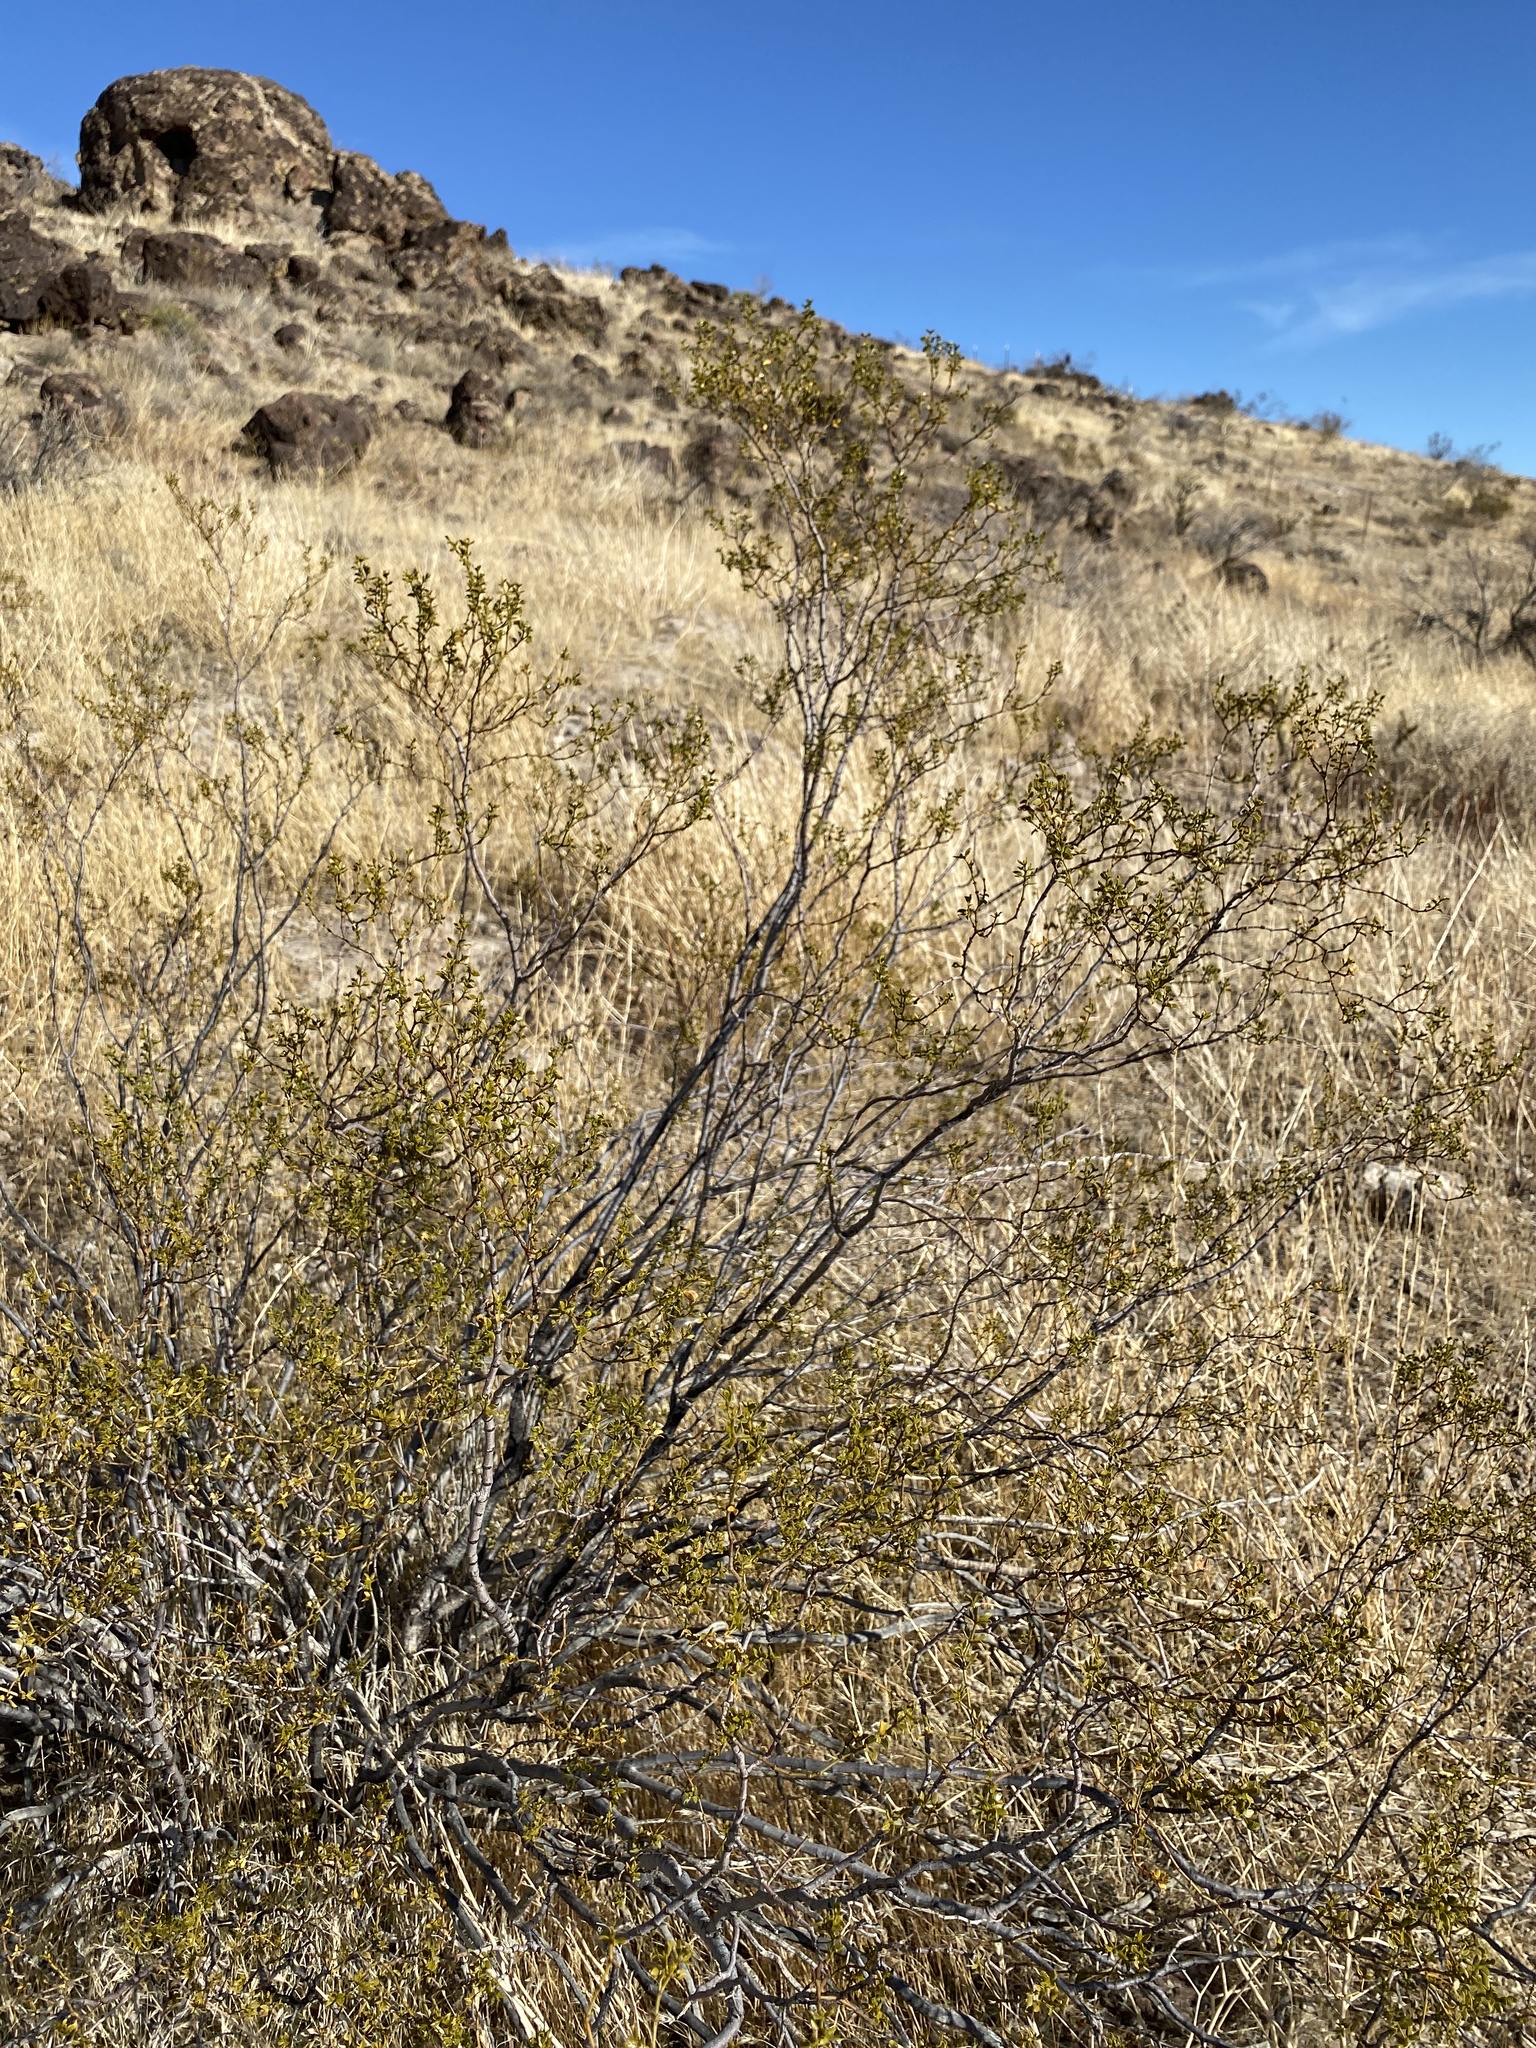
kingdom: Plantae
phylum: Tracheophyta
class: Magnoliopsida
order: Zygophyllales
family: Zygophyllaceae
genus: Larrea
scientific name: Larrea tridentata
